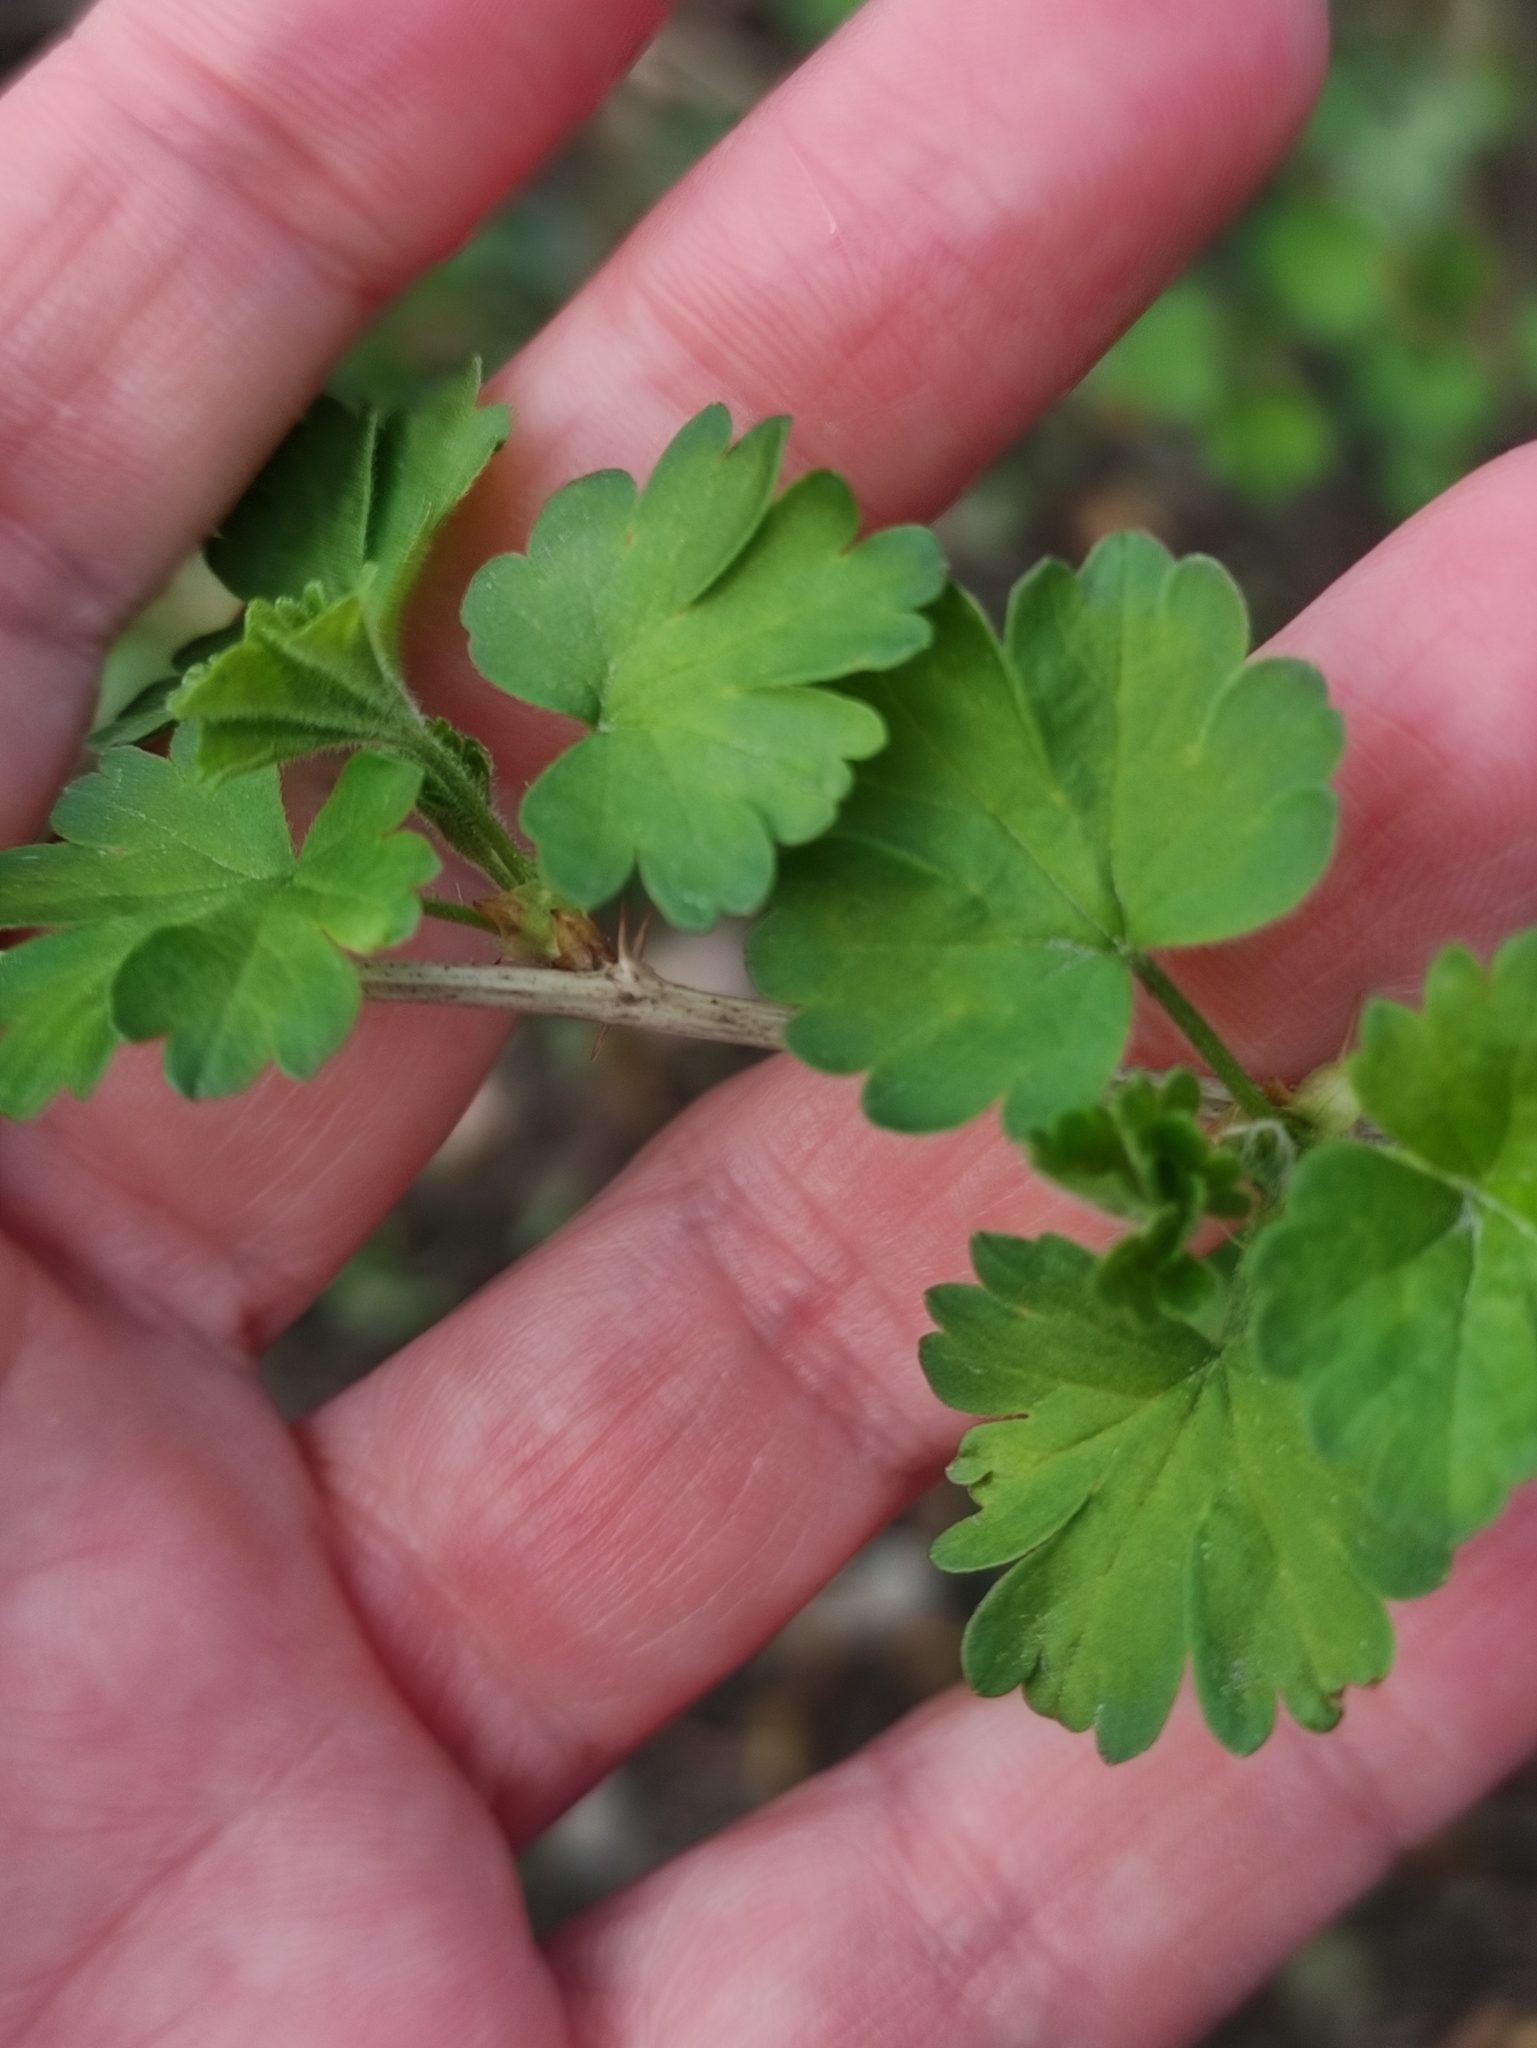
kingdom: Plantae
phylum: Tracheophyta
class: Magnoliopsida
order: Saxifragales
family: Grossulariaceae
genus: Ribes
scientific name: Ribes uva-crispa
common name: Gooseberry
